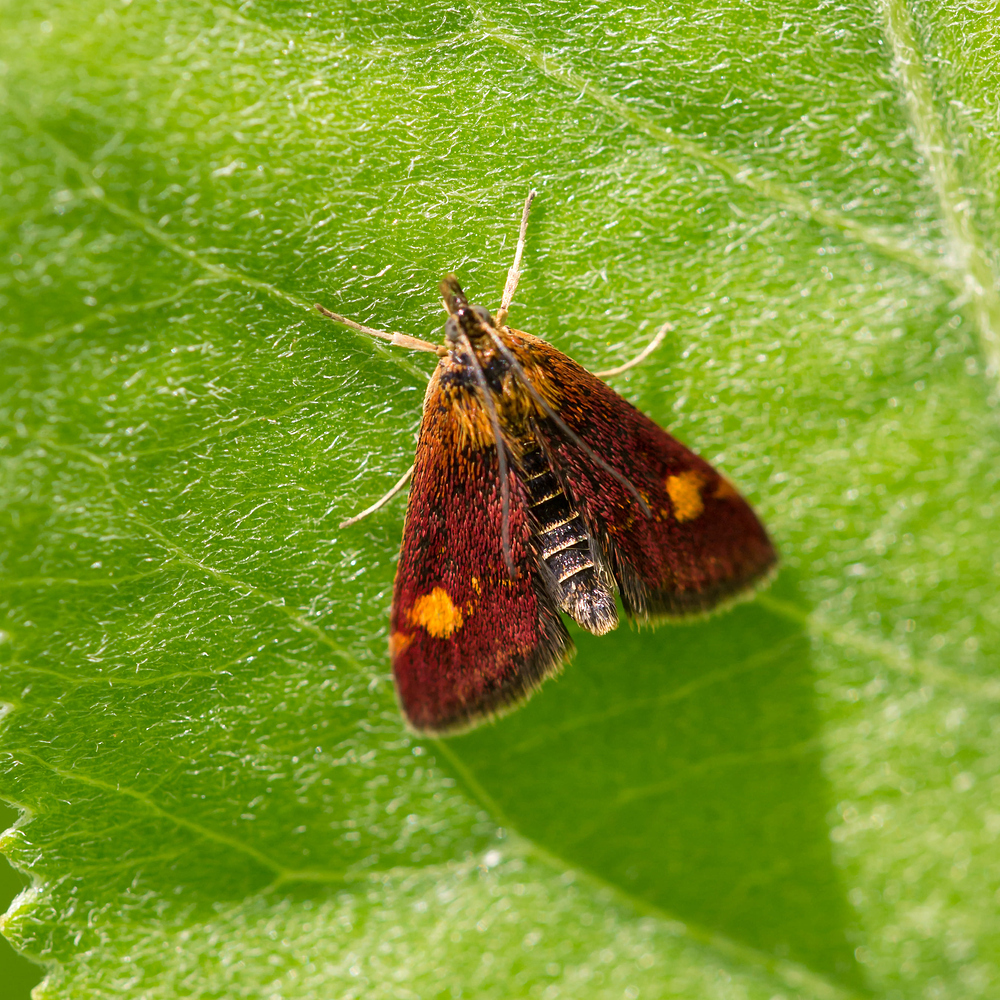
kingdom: Animalia
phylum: Arthropoda
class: Insecta
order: Lepidoptera
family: Crambidae
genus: Pyrausta
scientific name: Pyrausta aurata
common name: Small purple & gold
